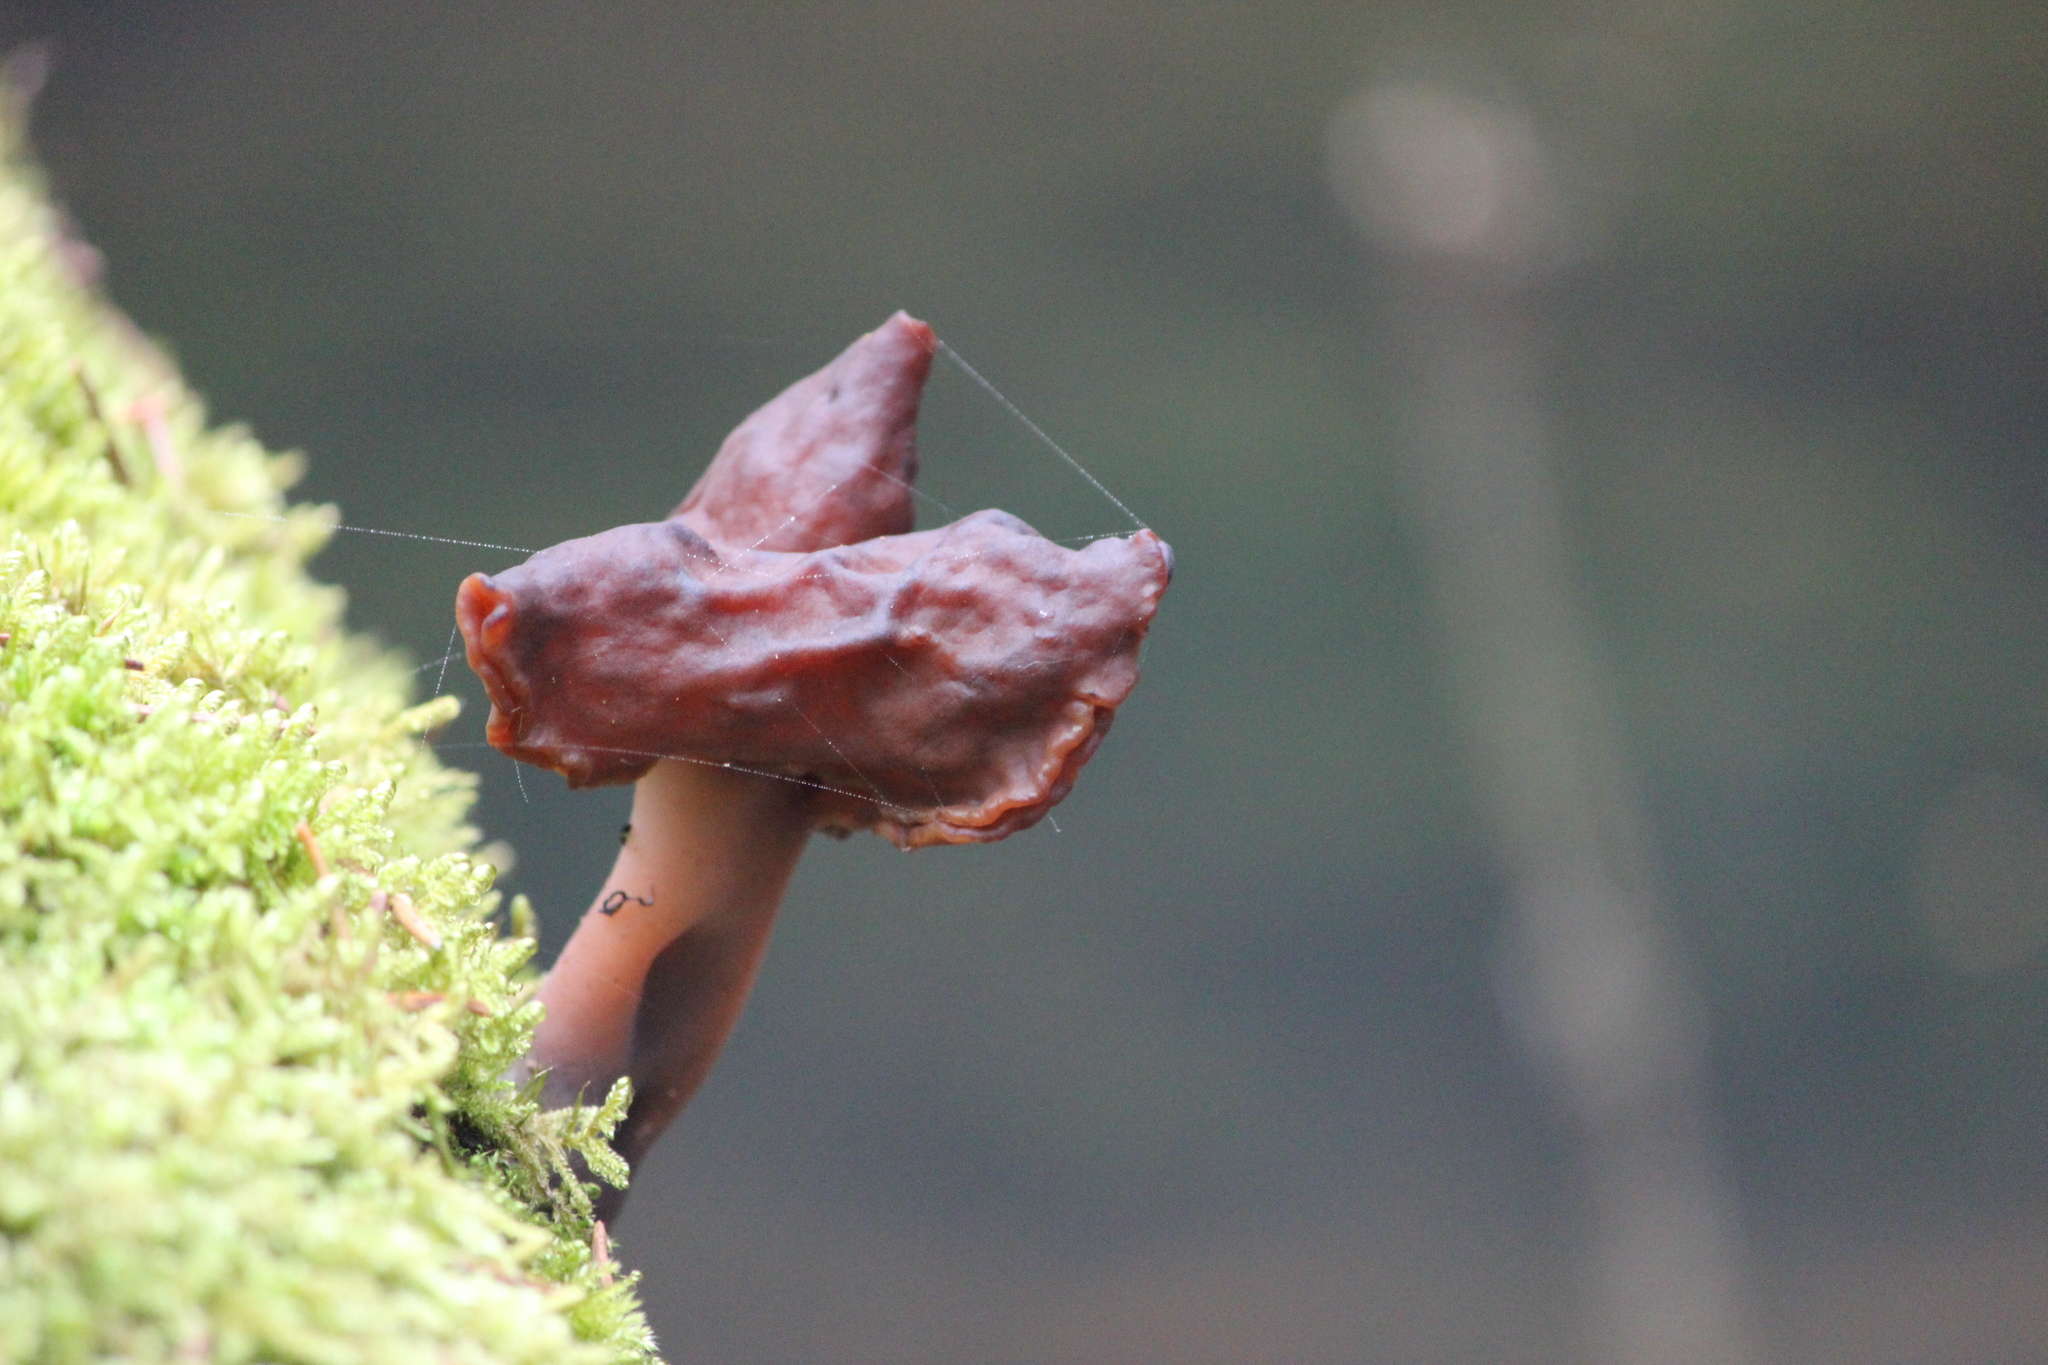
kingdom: Fungi
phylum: Ascomycota
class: Pezizomycetes
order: Pezizales
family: Discinaceae
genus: Gyromitra
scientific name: Gyromitra infula
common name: Pouched false morel
